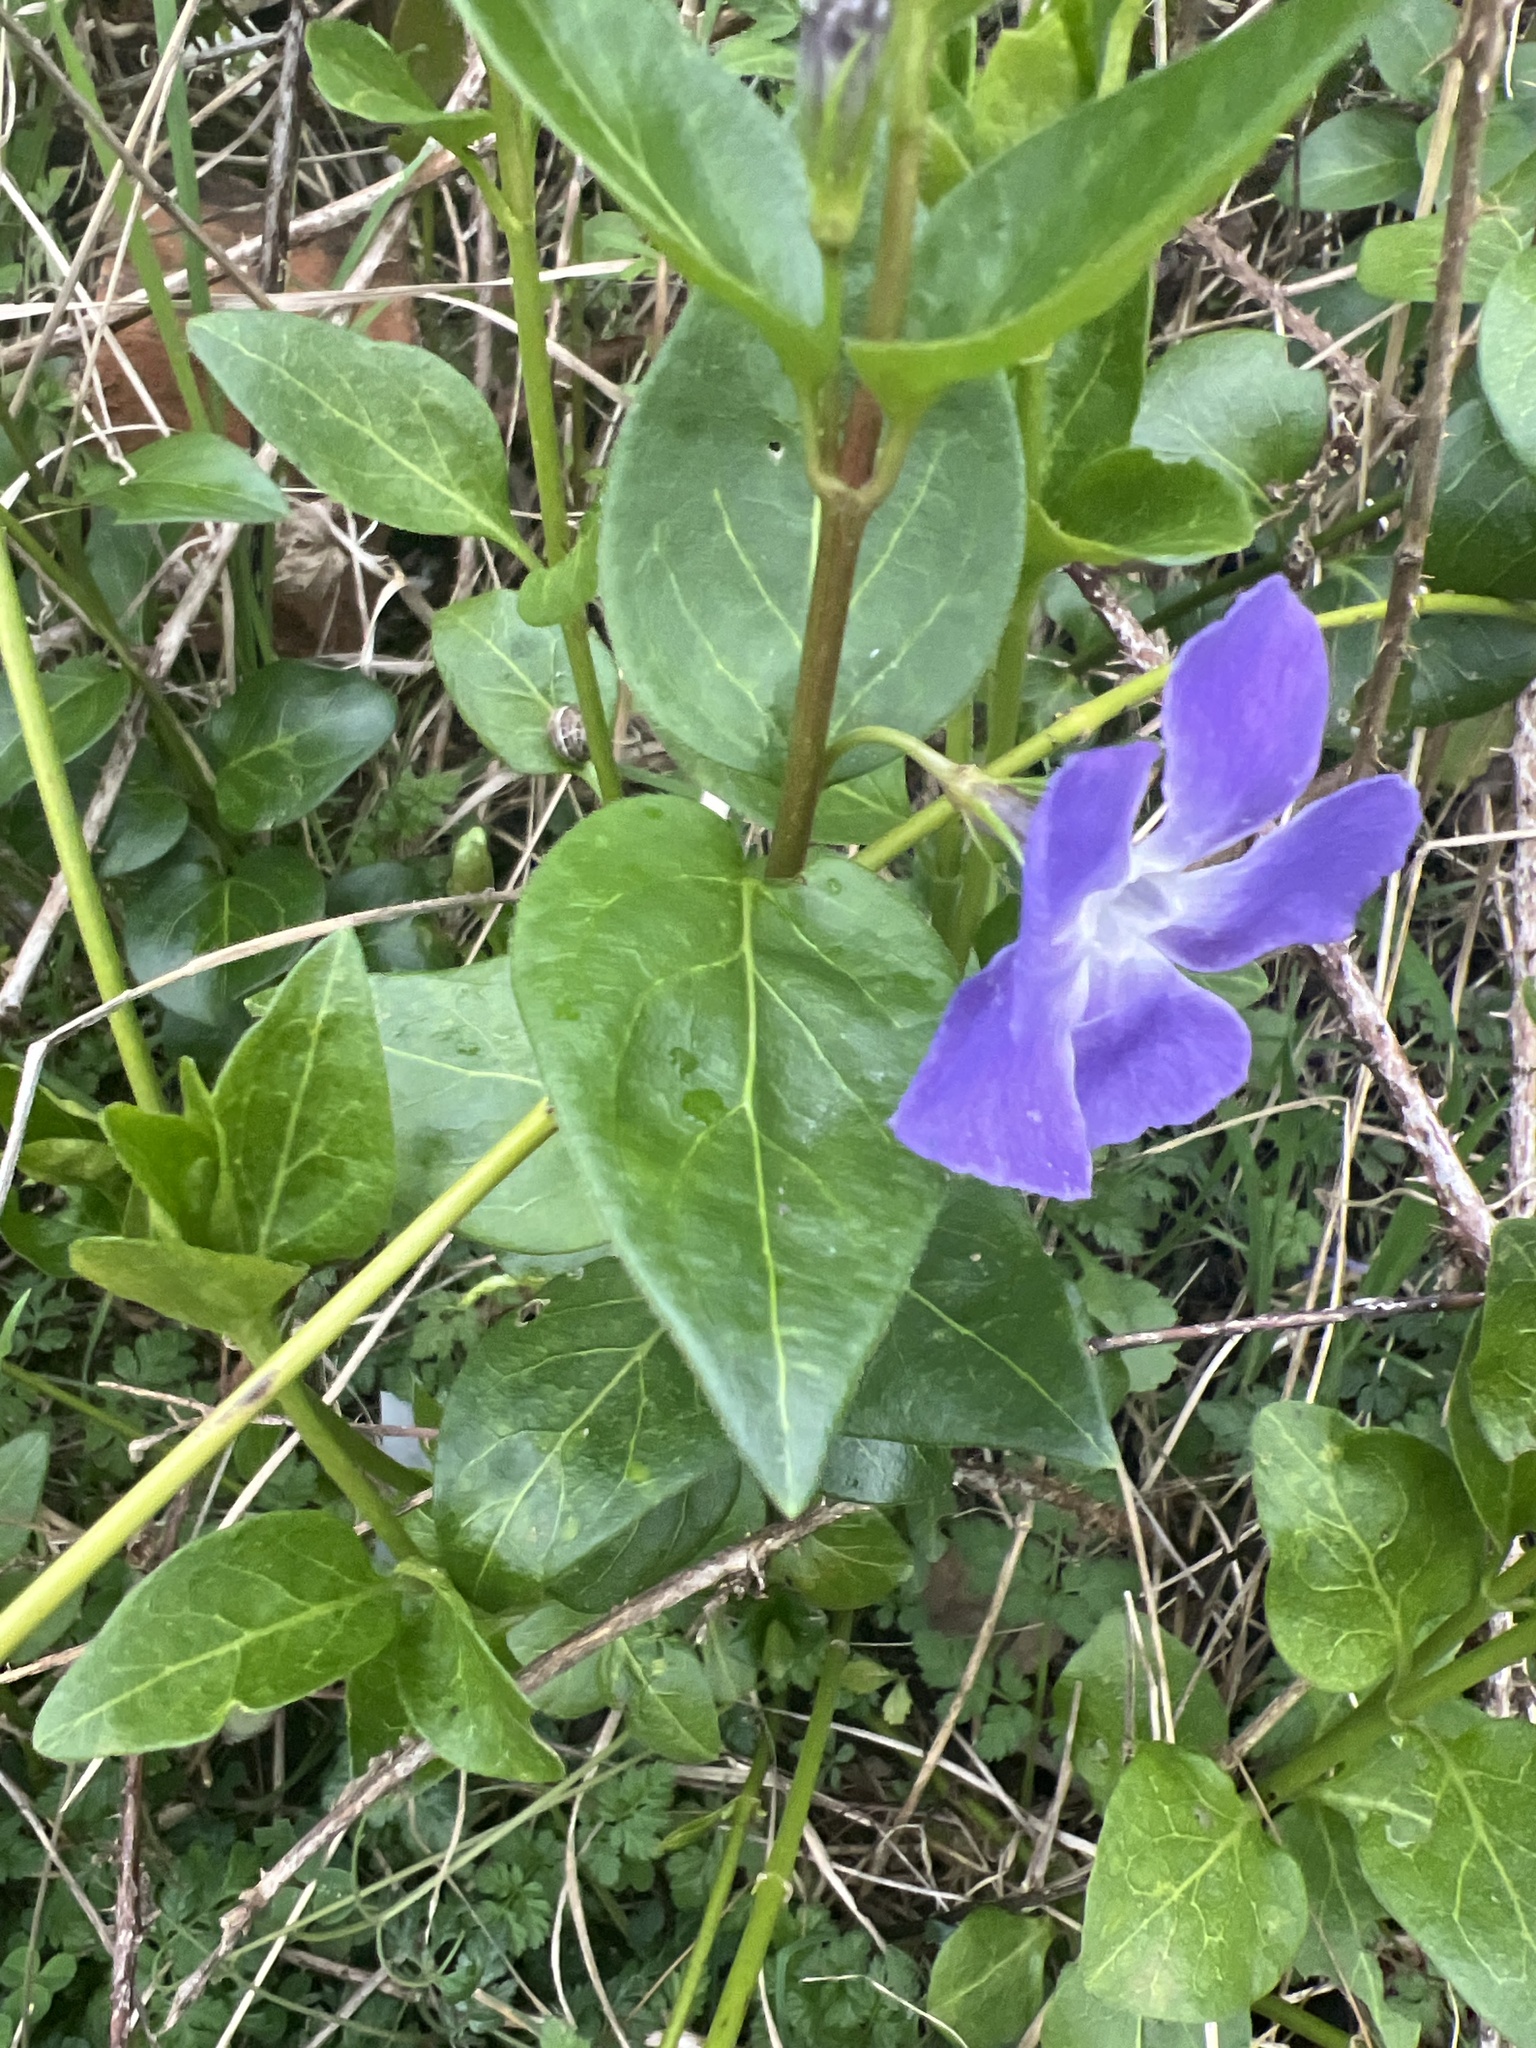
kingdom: Plantae
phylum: Tracheophyta
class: Magnoliopsida
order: Gentianales
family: Apocynaceae
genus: Vinca
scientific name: Vinca major
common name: Greater periwinkle
